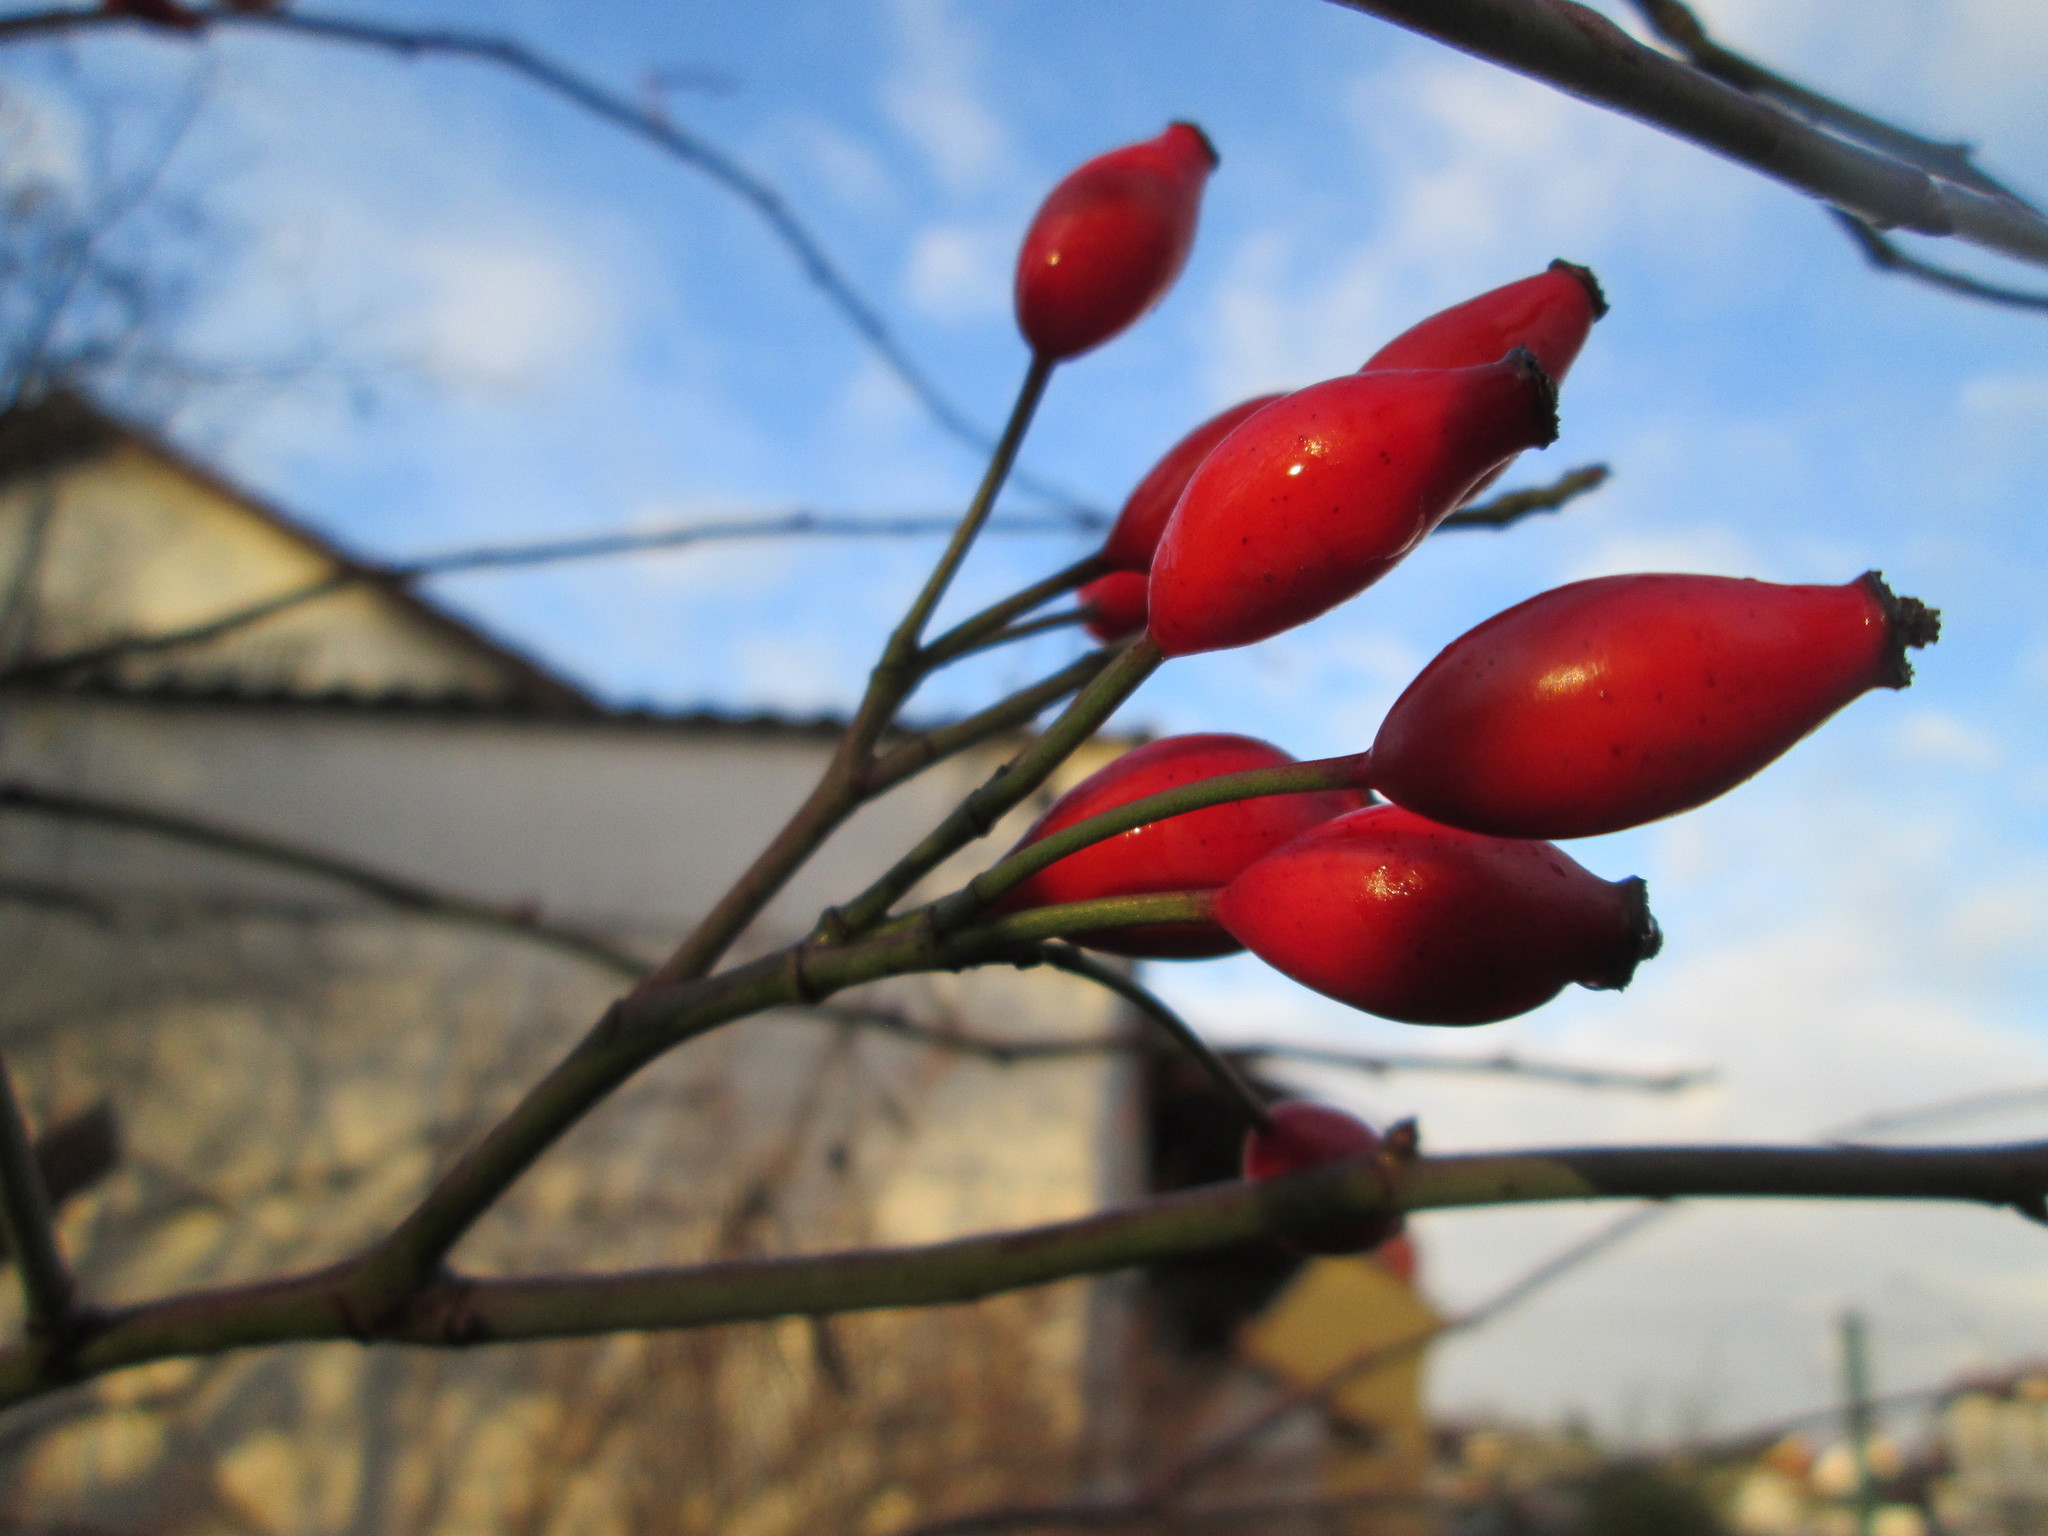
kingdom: Plantae
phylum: Tracheophyta
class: Magnoliopsida
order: Rosales
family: Rosaceae
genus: Rosa
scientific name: Rosa canina
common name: Dog rose
